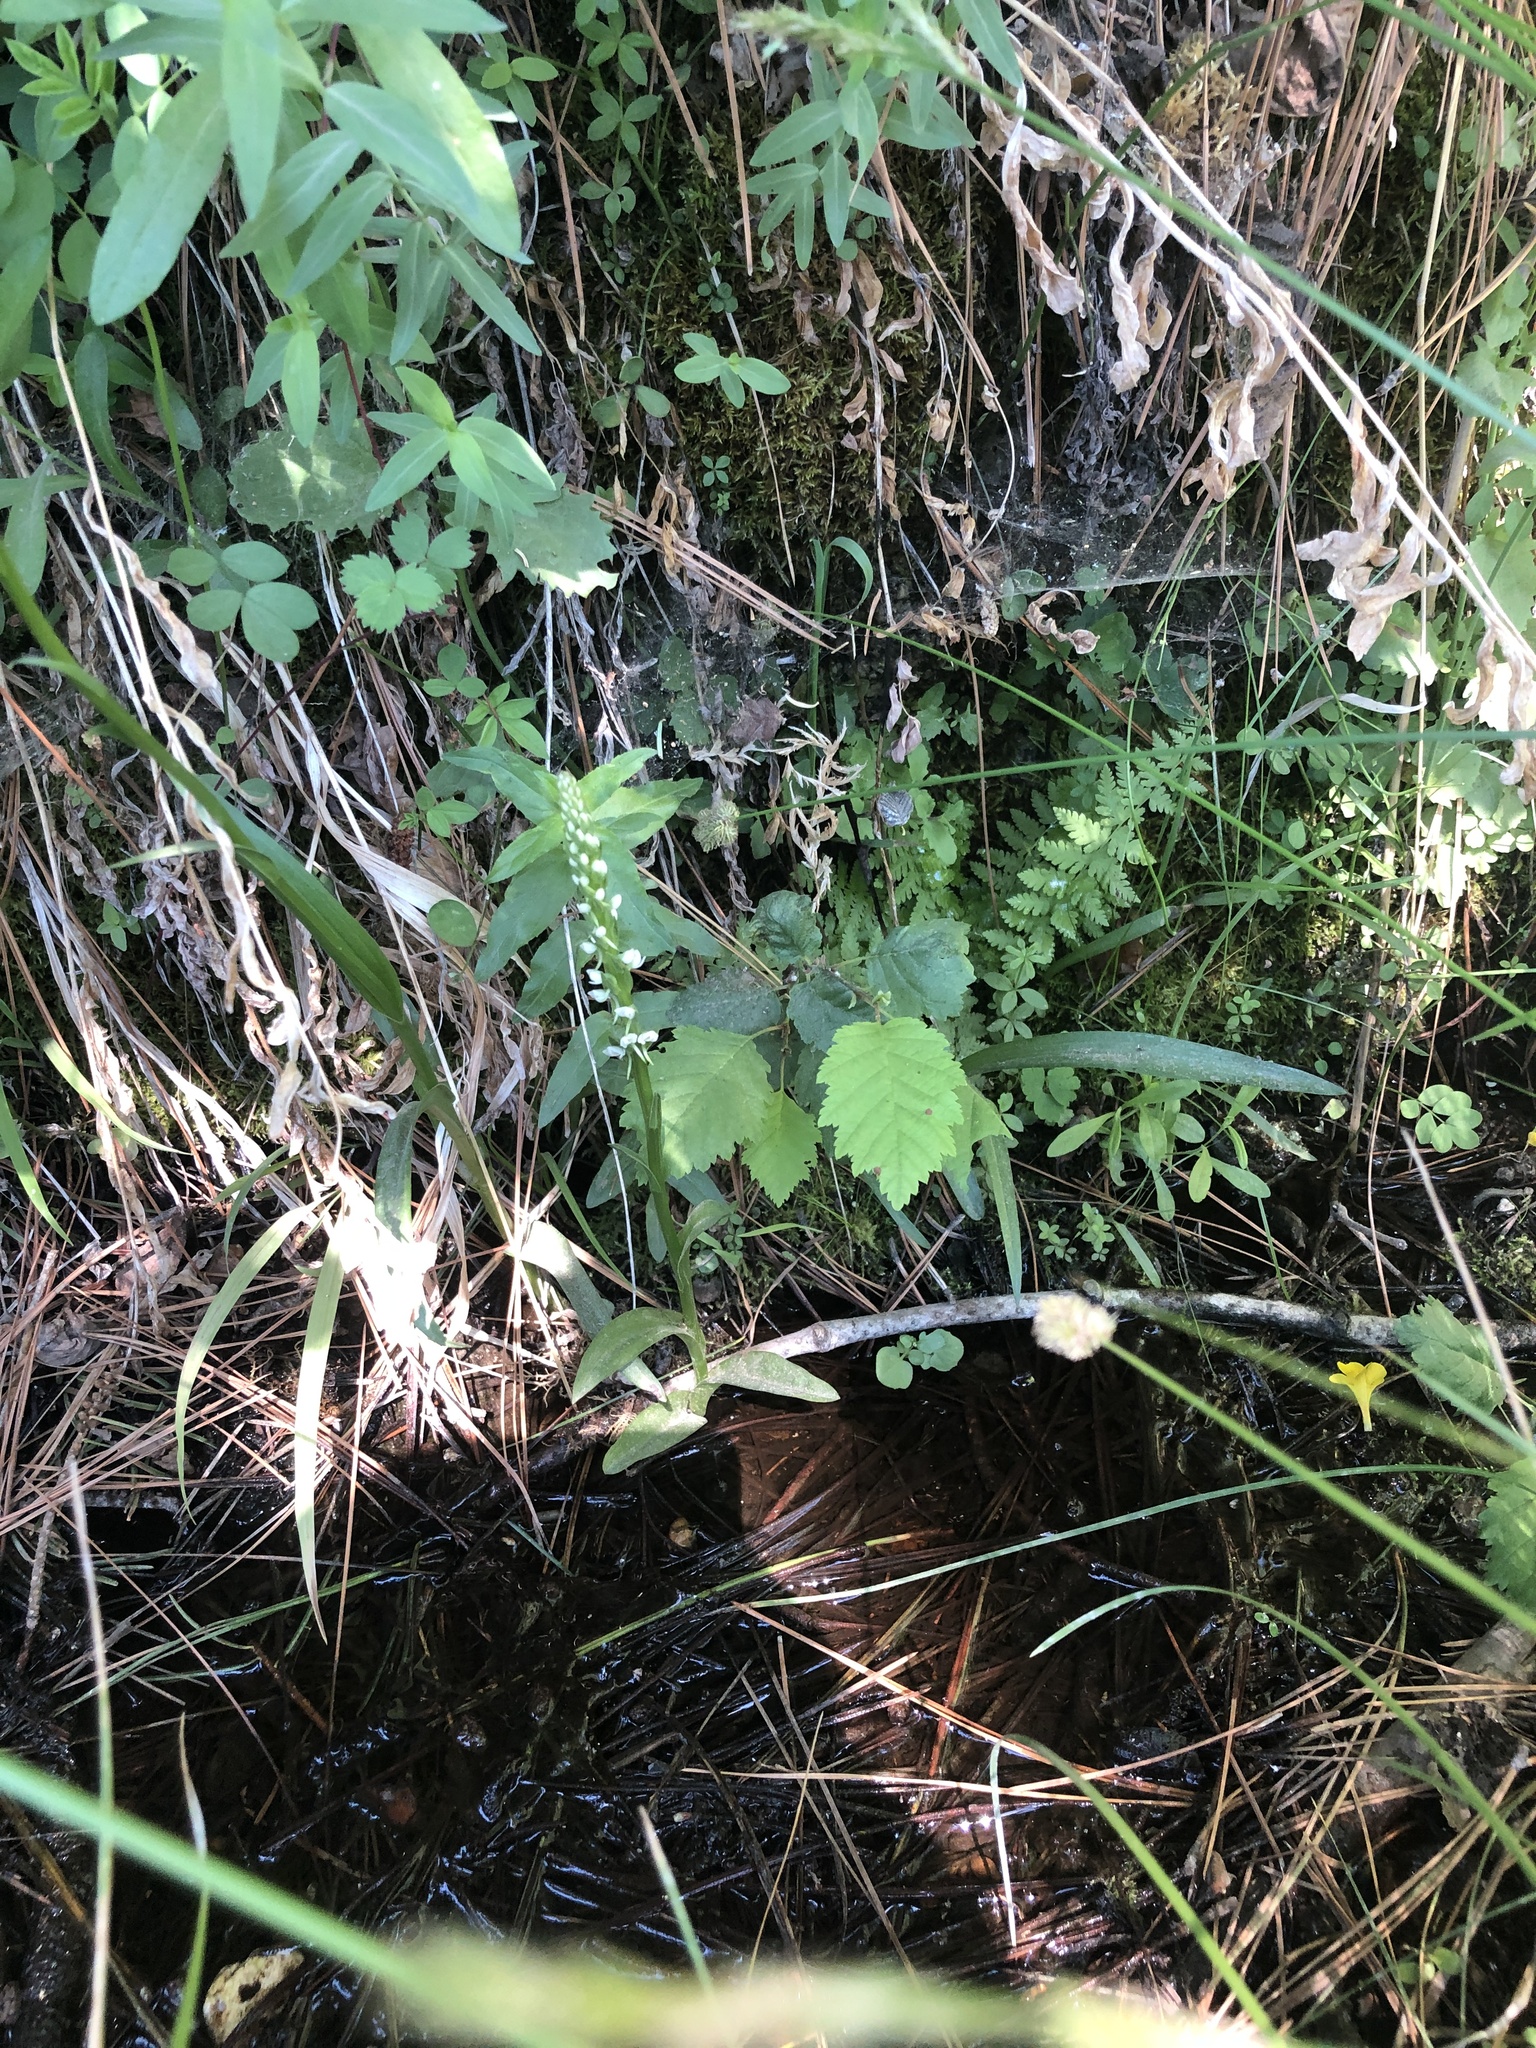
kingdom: Plantae
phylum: Tracheophyta
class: Liliopsida
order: Asparagales
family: Orchidaceae
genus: Platanthera
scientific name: Platanthera dilatata
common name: Bog candles
